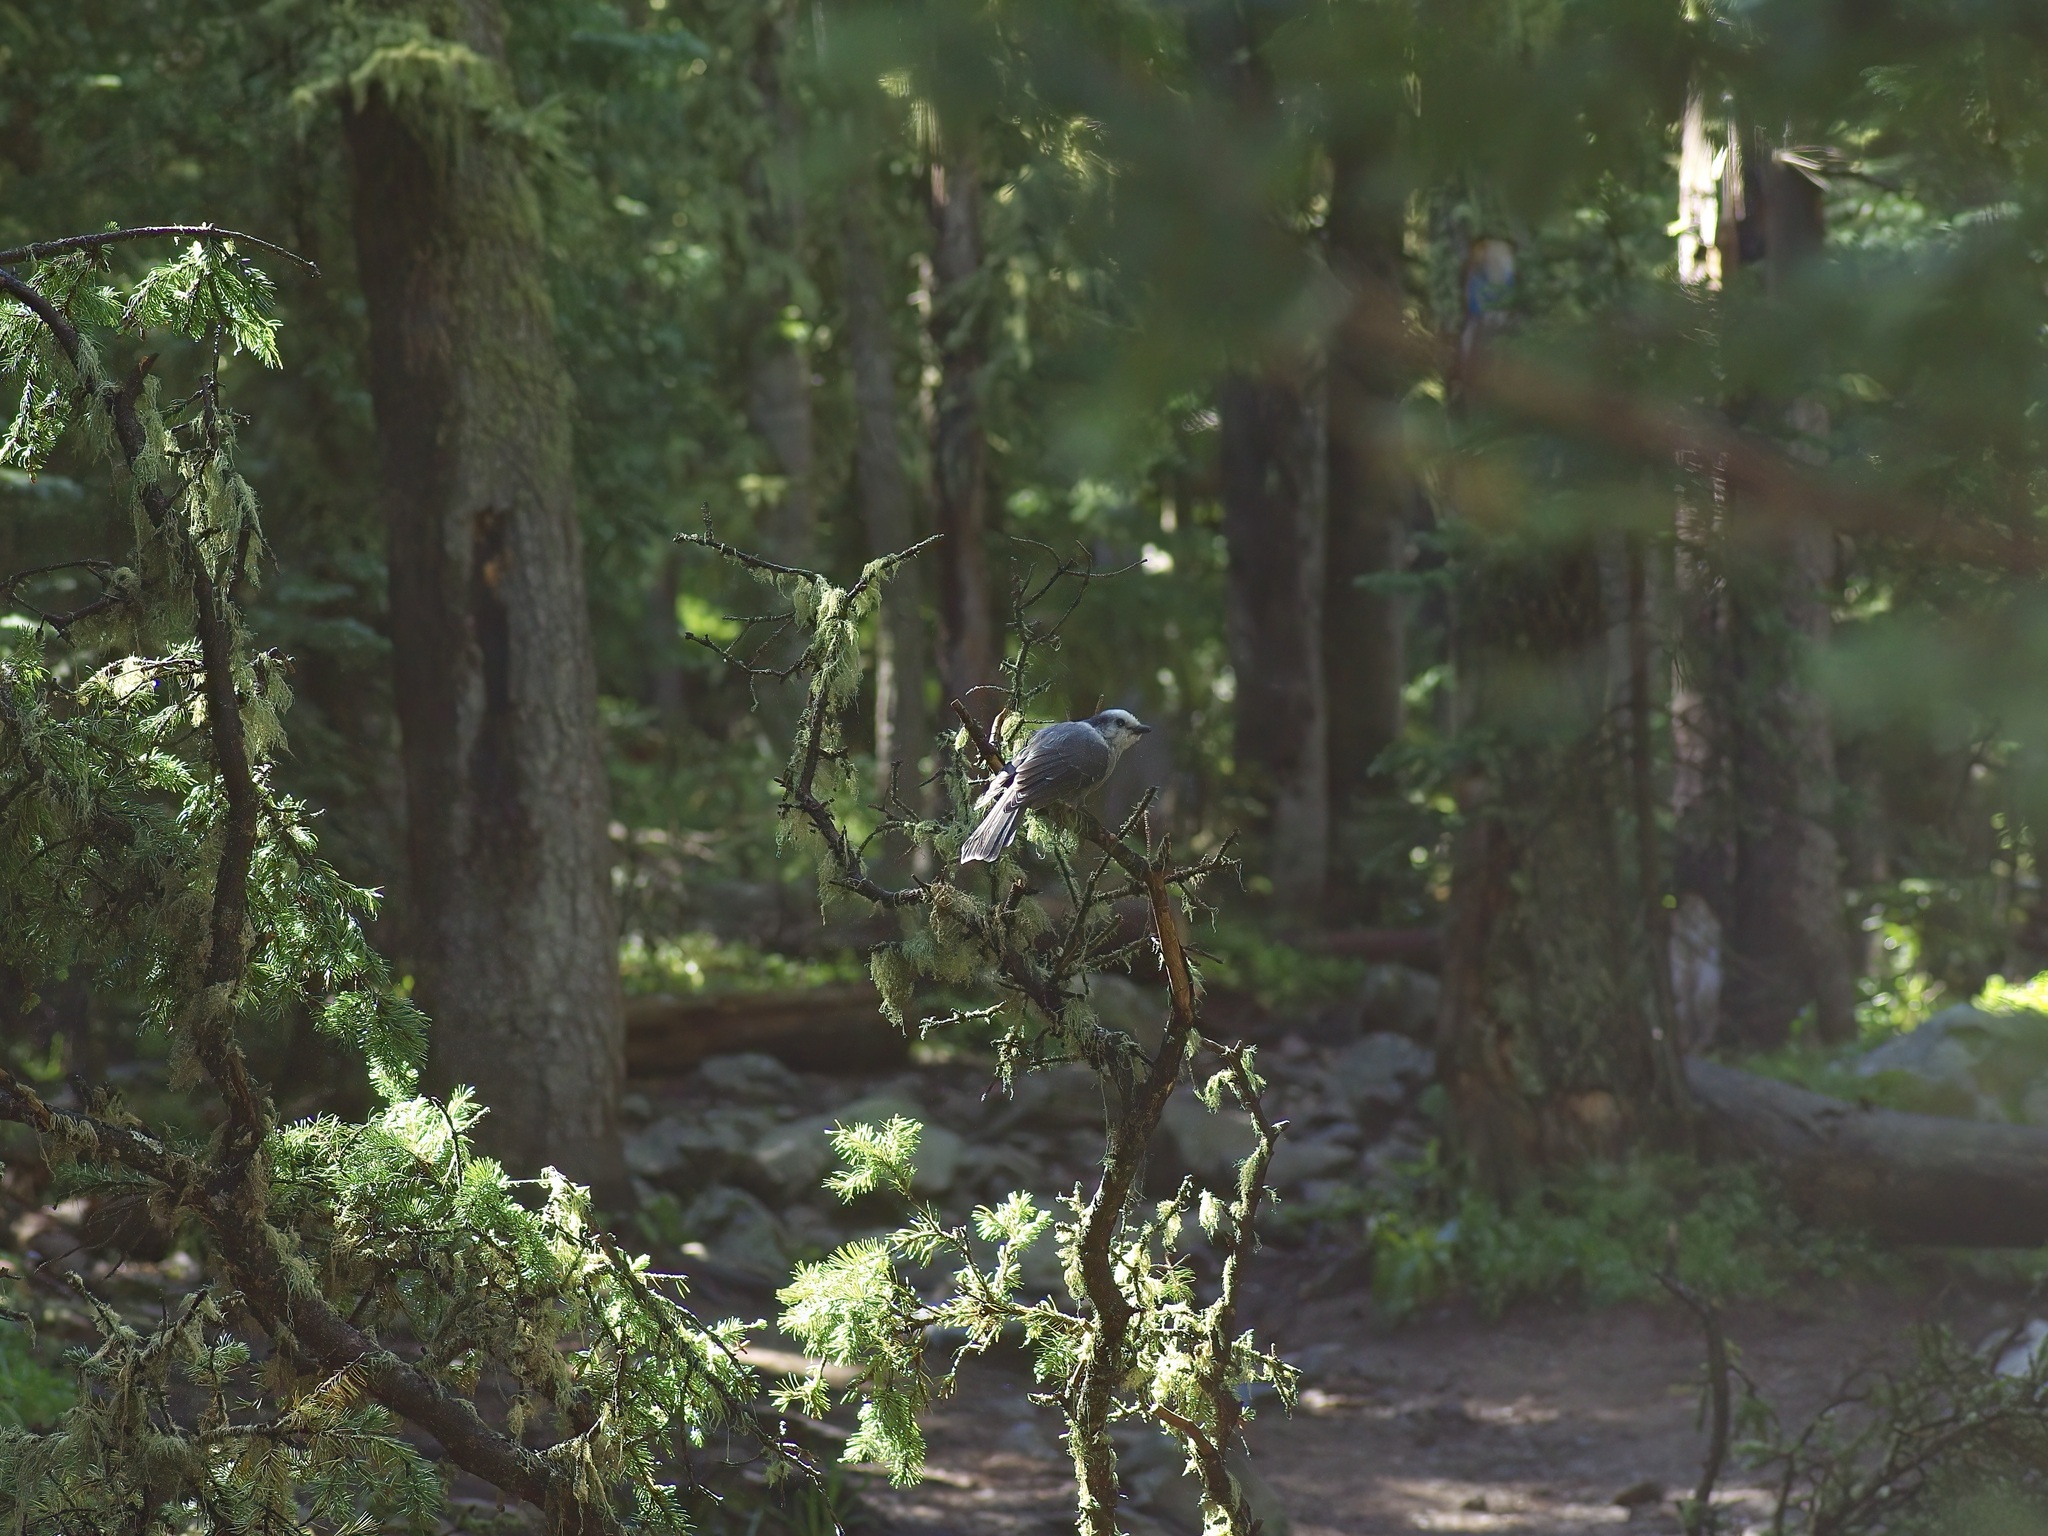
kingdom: Animalia
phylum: Chordata
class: Aves
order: Passeriformes
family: Corvidae
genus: Perisoreus
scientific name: Perisoreus canadensis
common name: Gray jay
